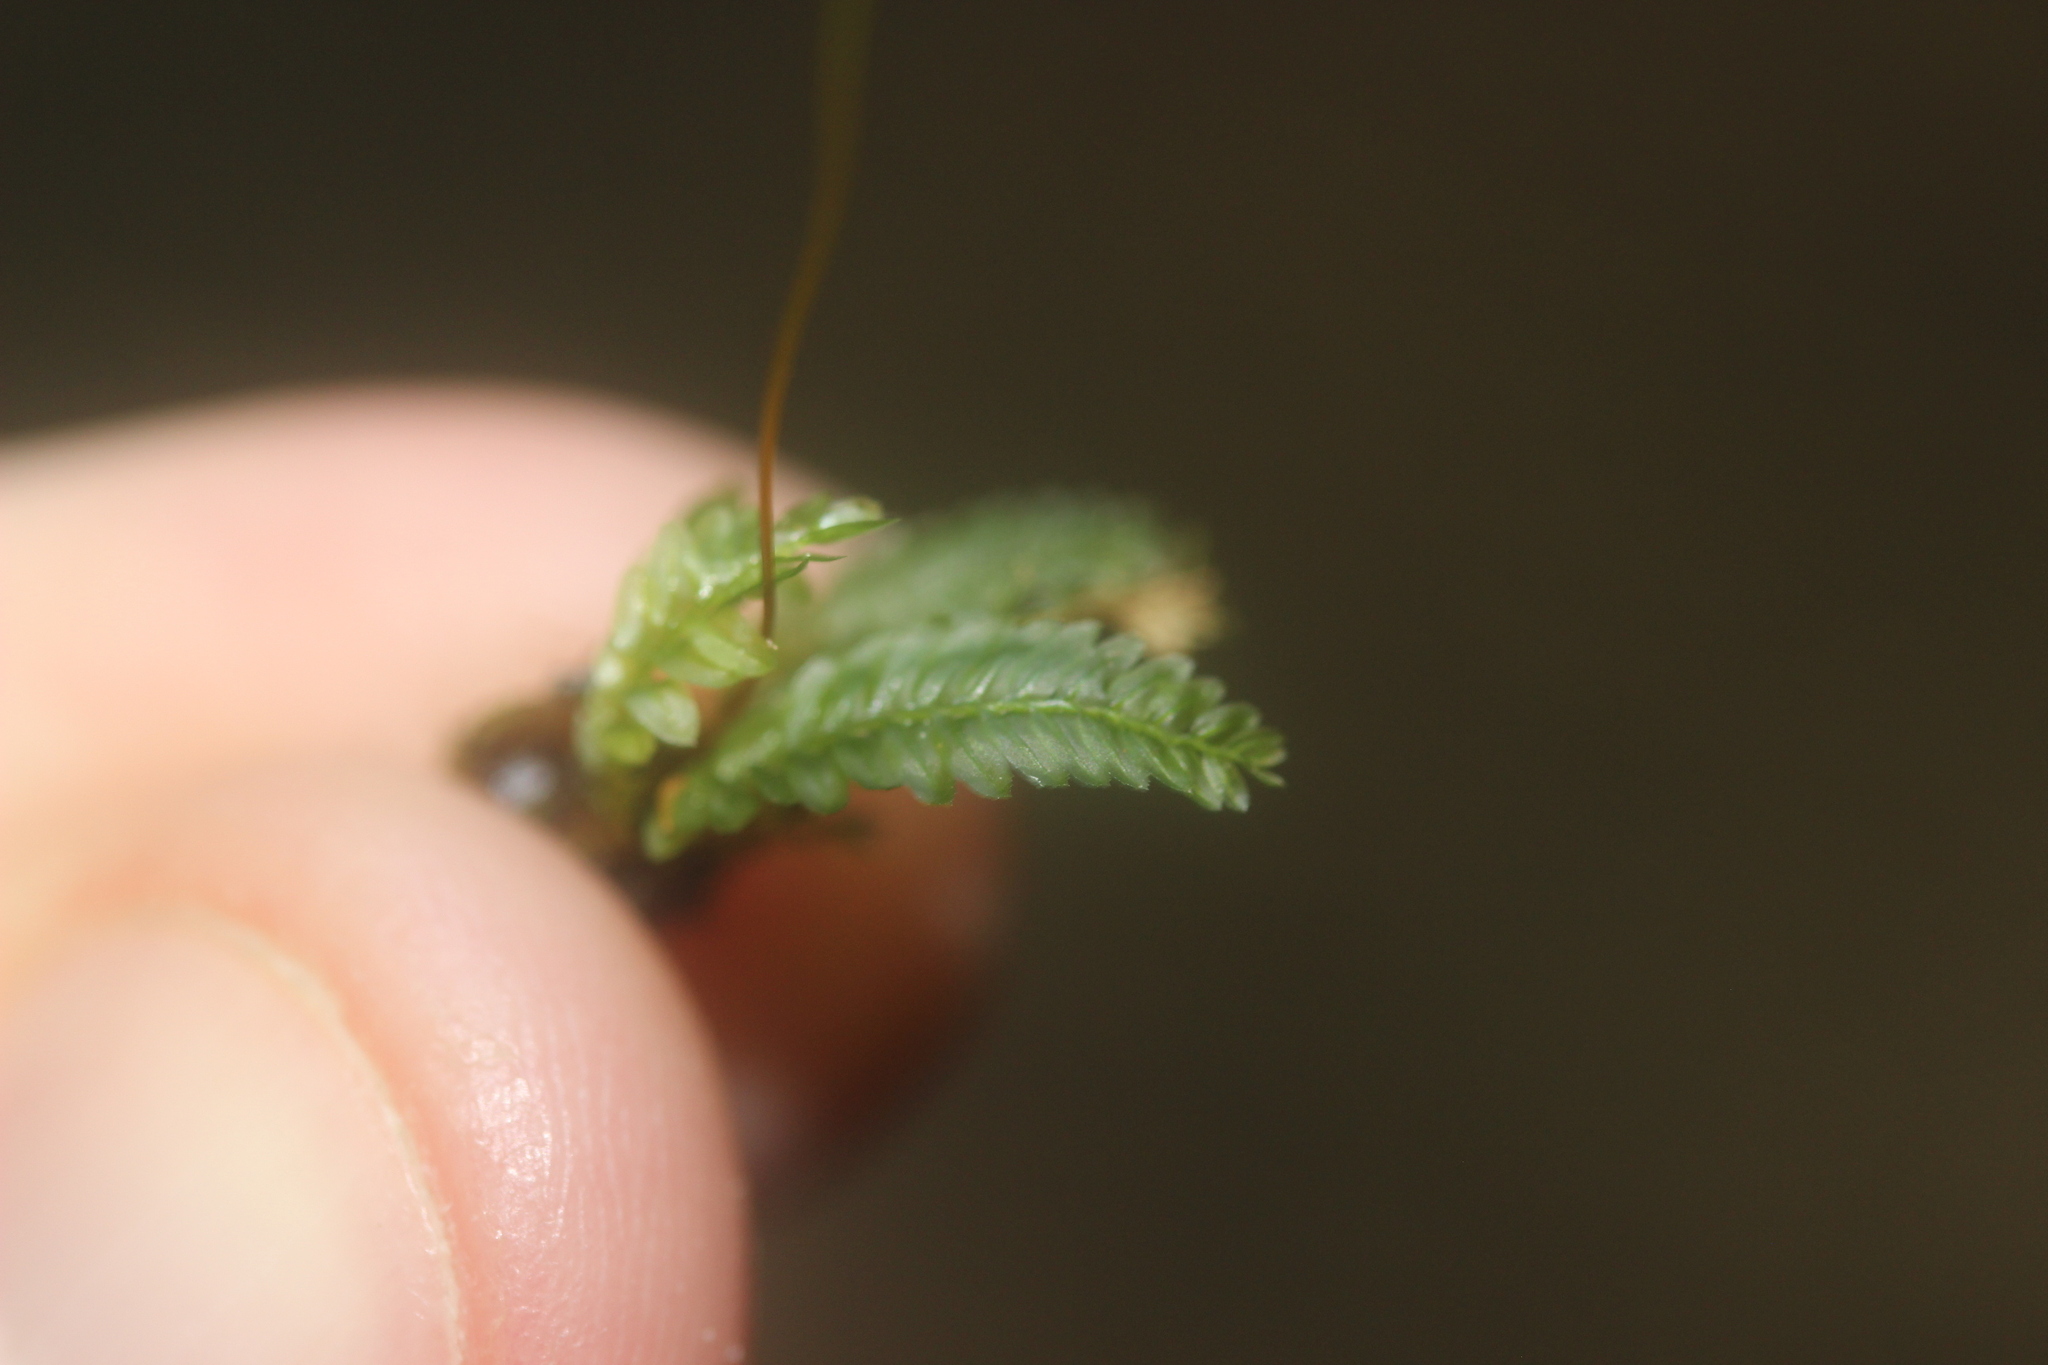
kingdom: Plantae
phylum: Bryophyta
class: Bryopsida
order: Rhizogoniales
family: Rhizogoniaceae
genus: Rhizogonium
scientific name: Rhizogonium distichum
